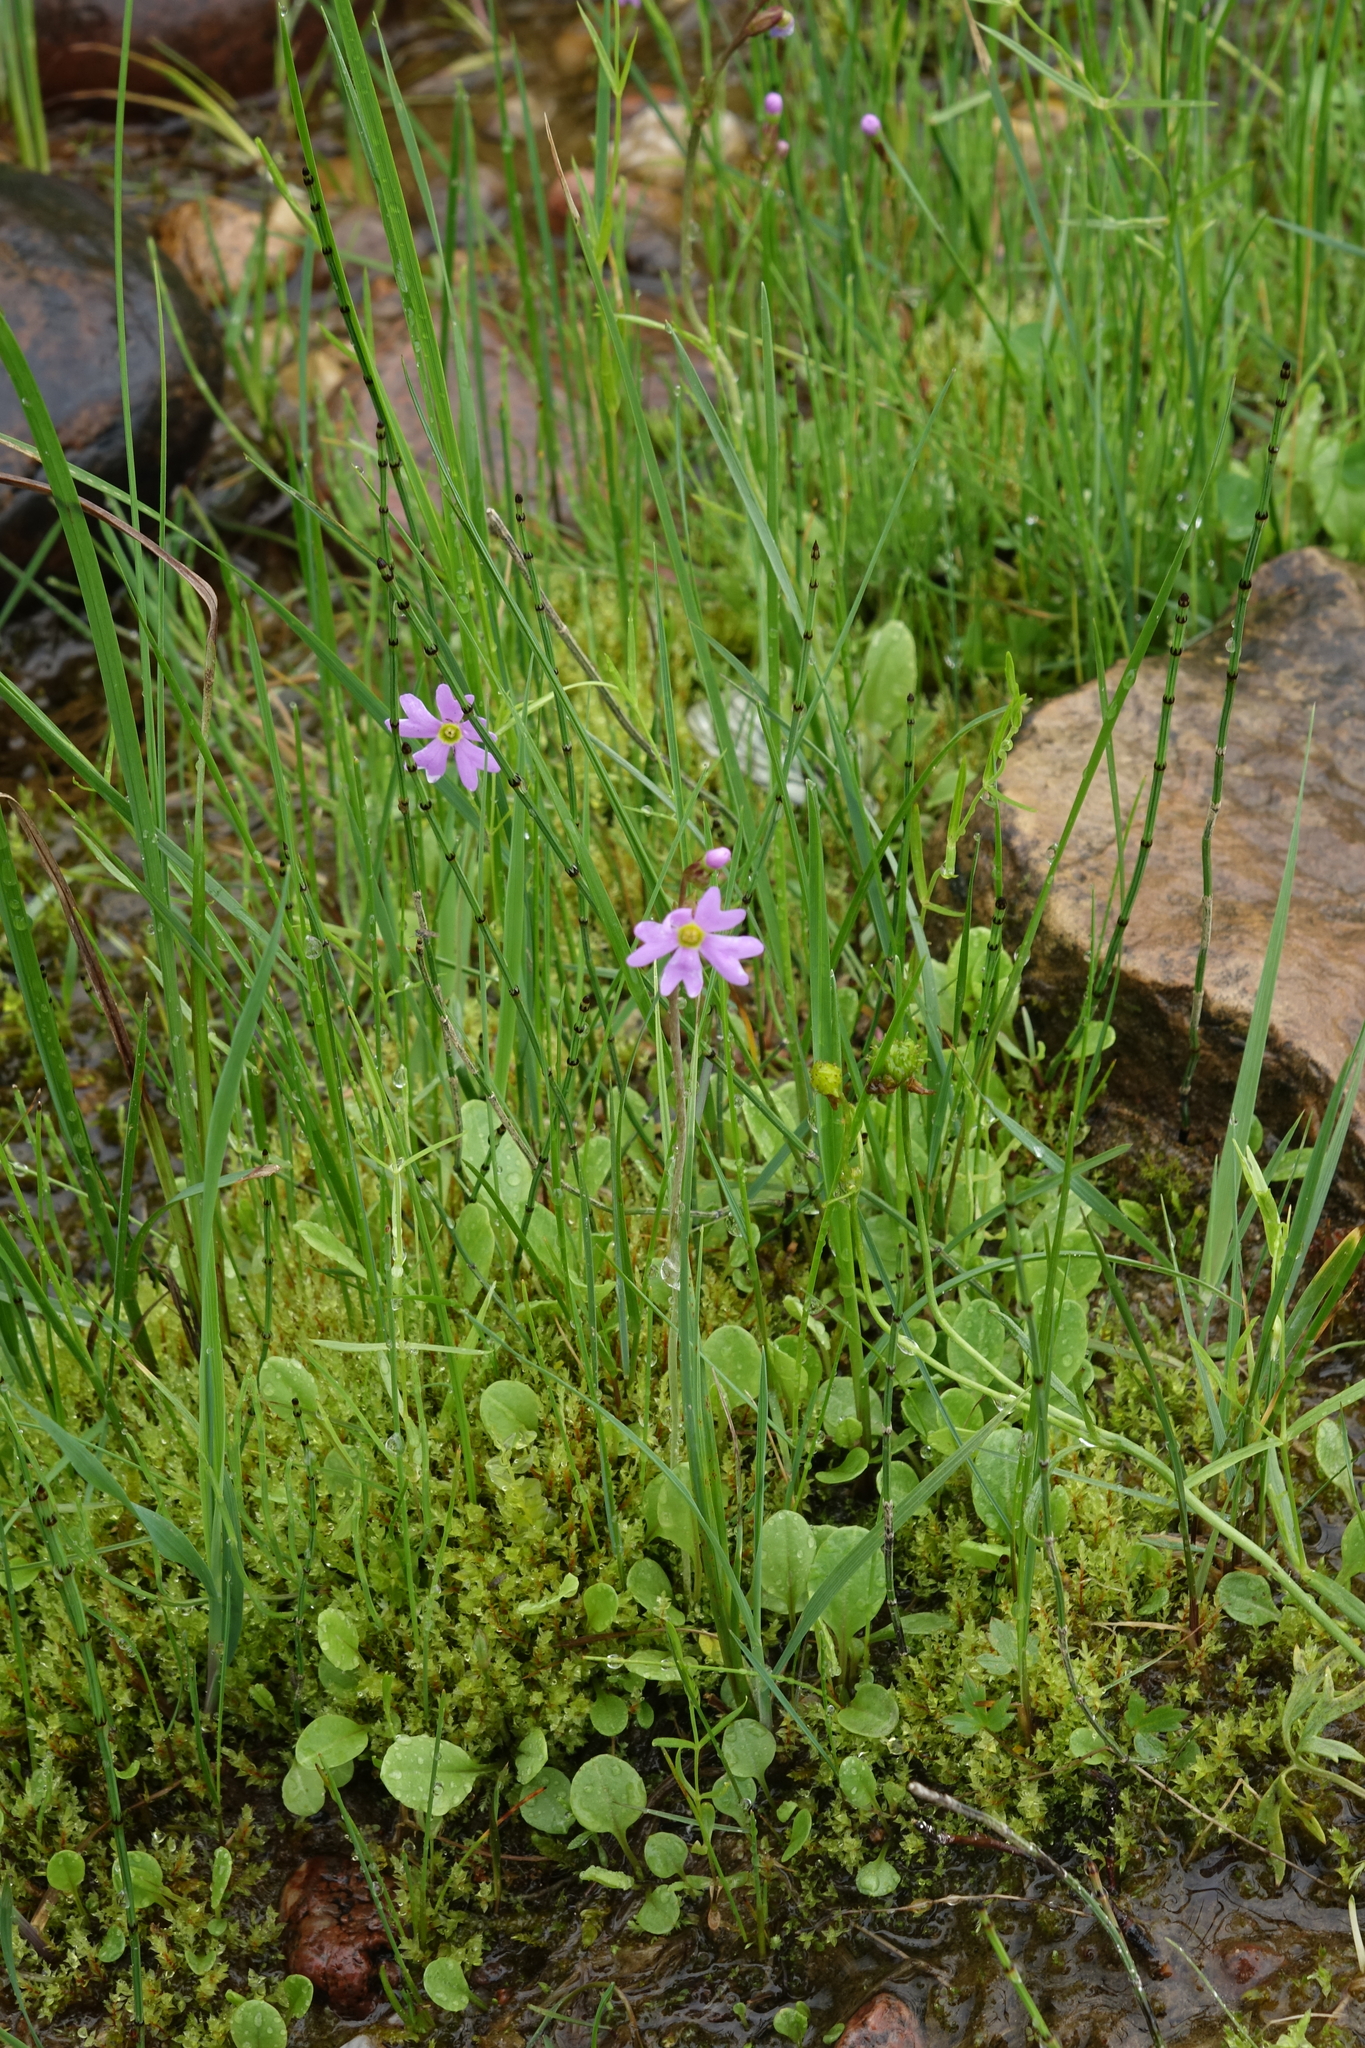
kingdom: Plantae
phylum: Tracheophyta
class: Polypodiopsida
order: Equisetales
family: Equisetaceae
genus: Equisetum
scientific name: Equisetum variegatum
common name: Variegated horsetail
